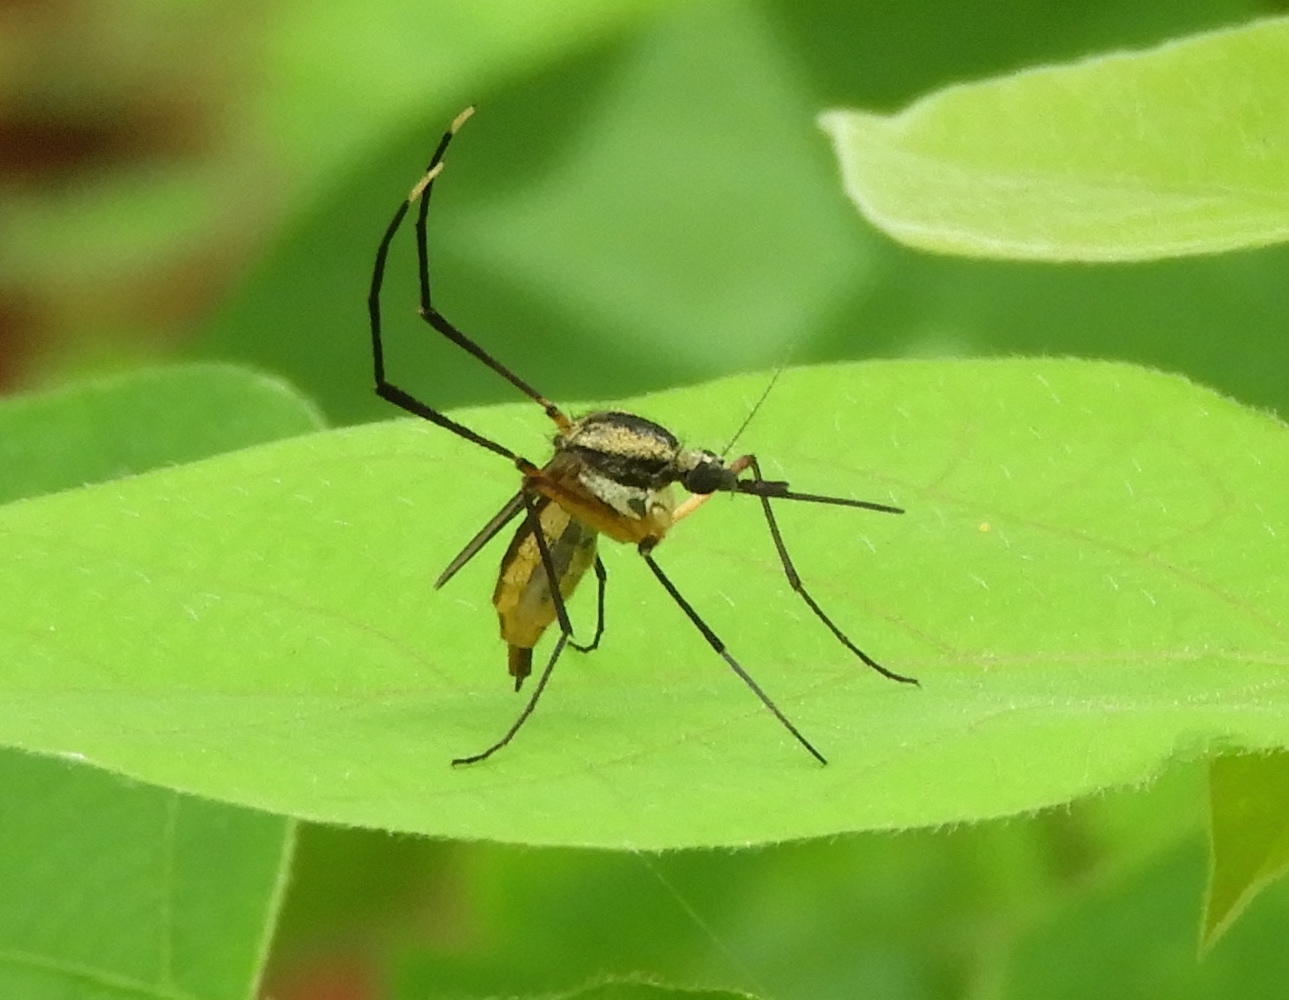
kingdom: Animalia
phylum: Arthropoda
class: Insecta
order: Diptera
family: Culicidae
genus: Psorophora
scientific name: Psorophora
